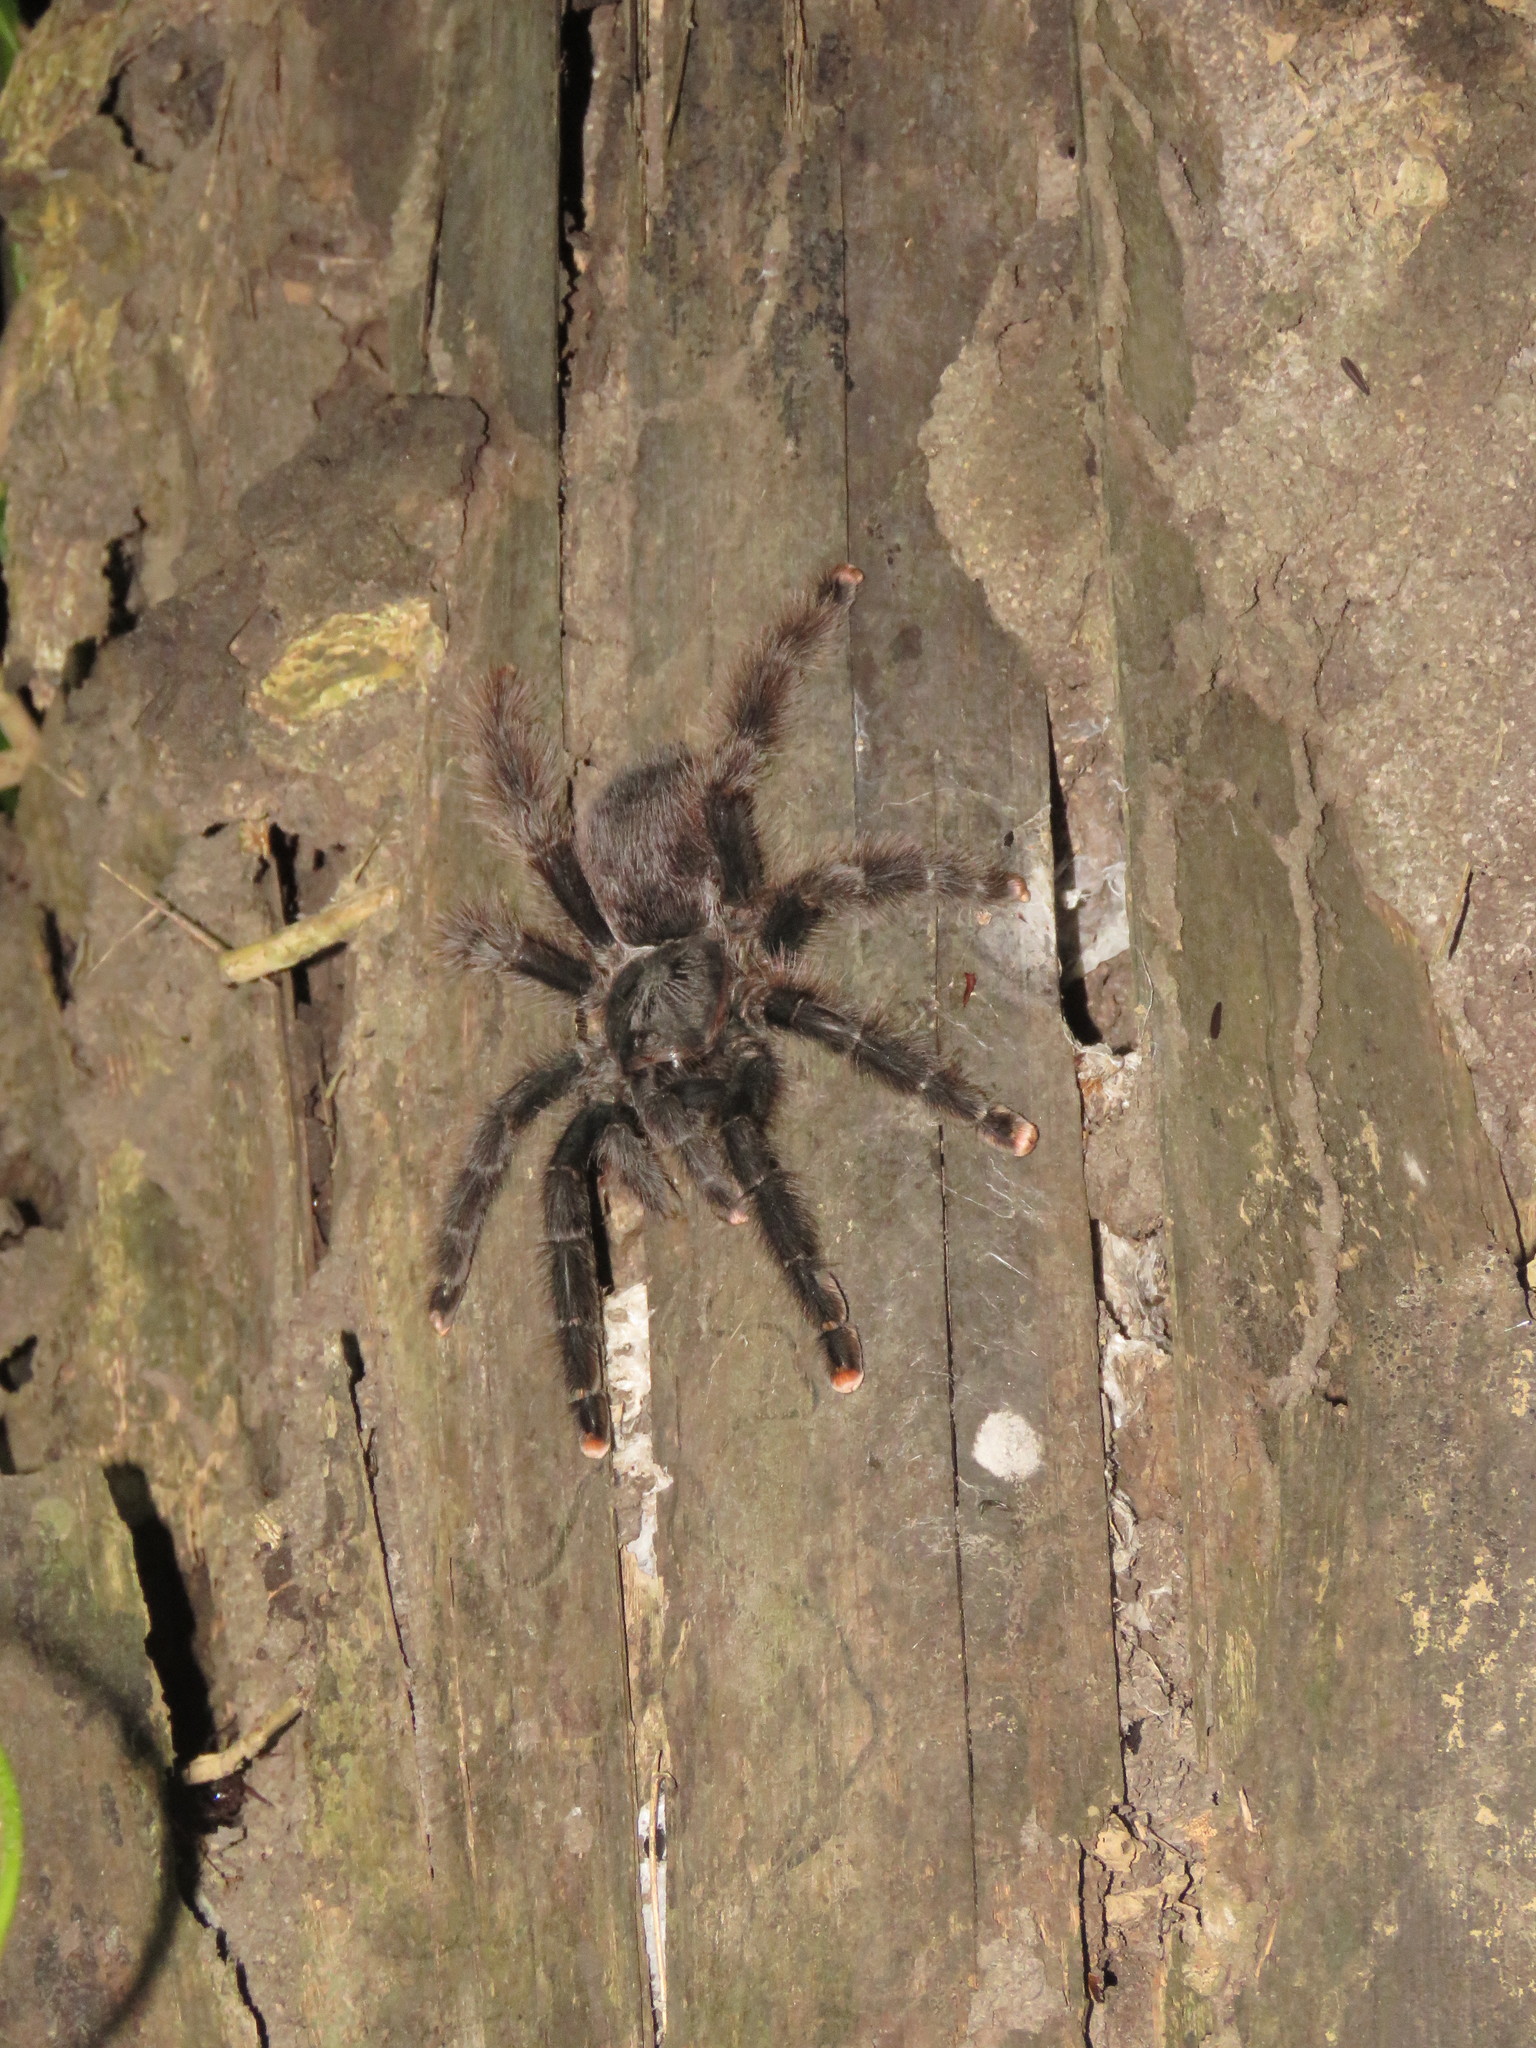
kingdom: Animalia
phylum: Arthropoda
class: Arachnida
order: Araneae
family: Theraphosidae
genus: Avicularia
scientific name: Avicularia avicularia
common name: Tarantula spiders
